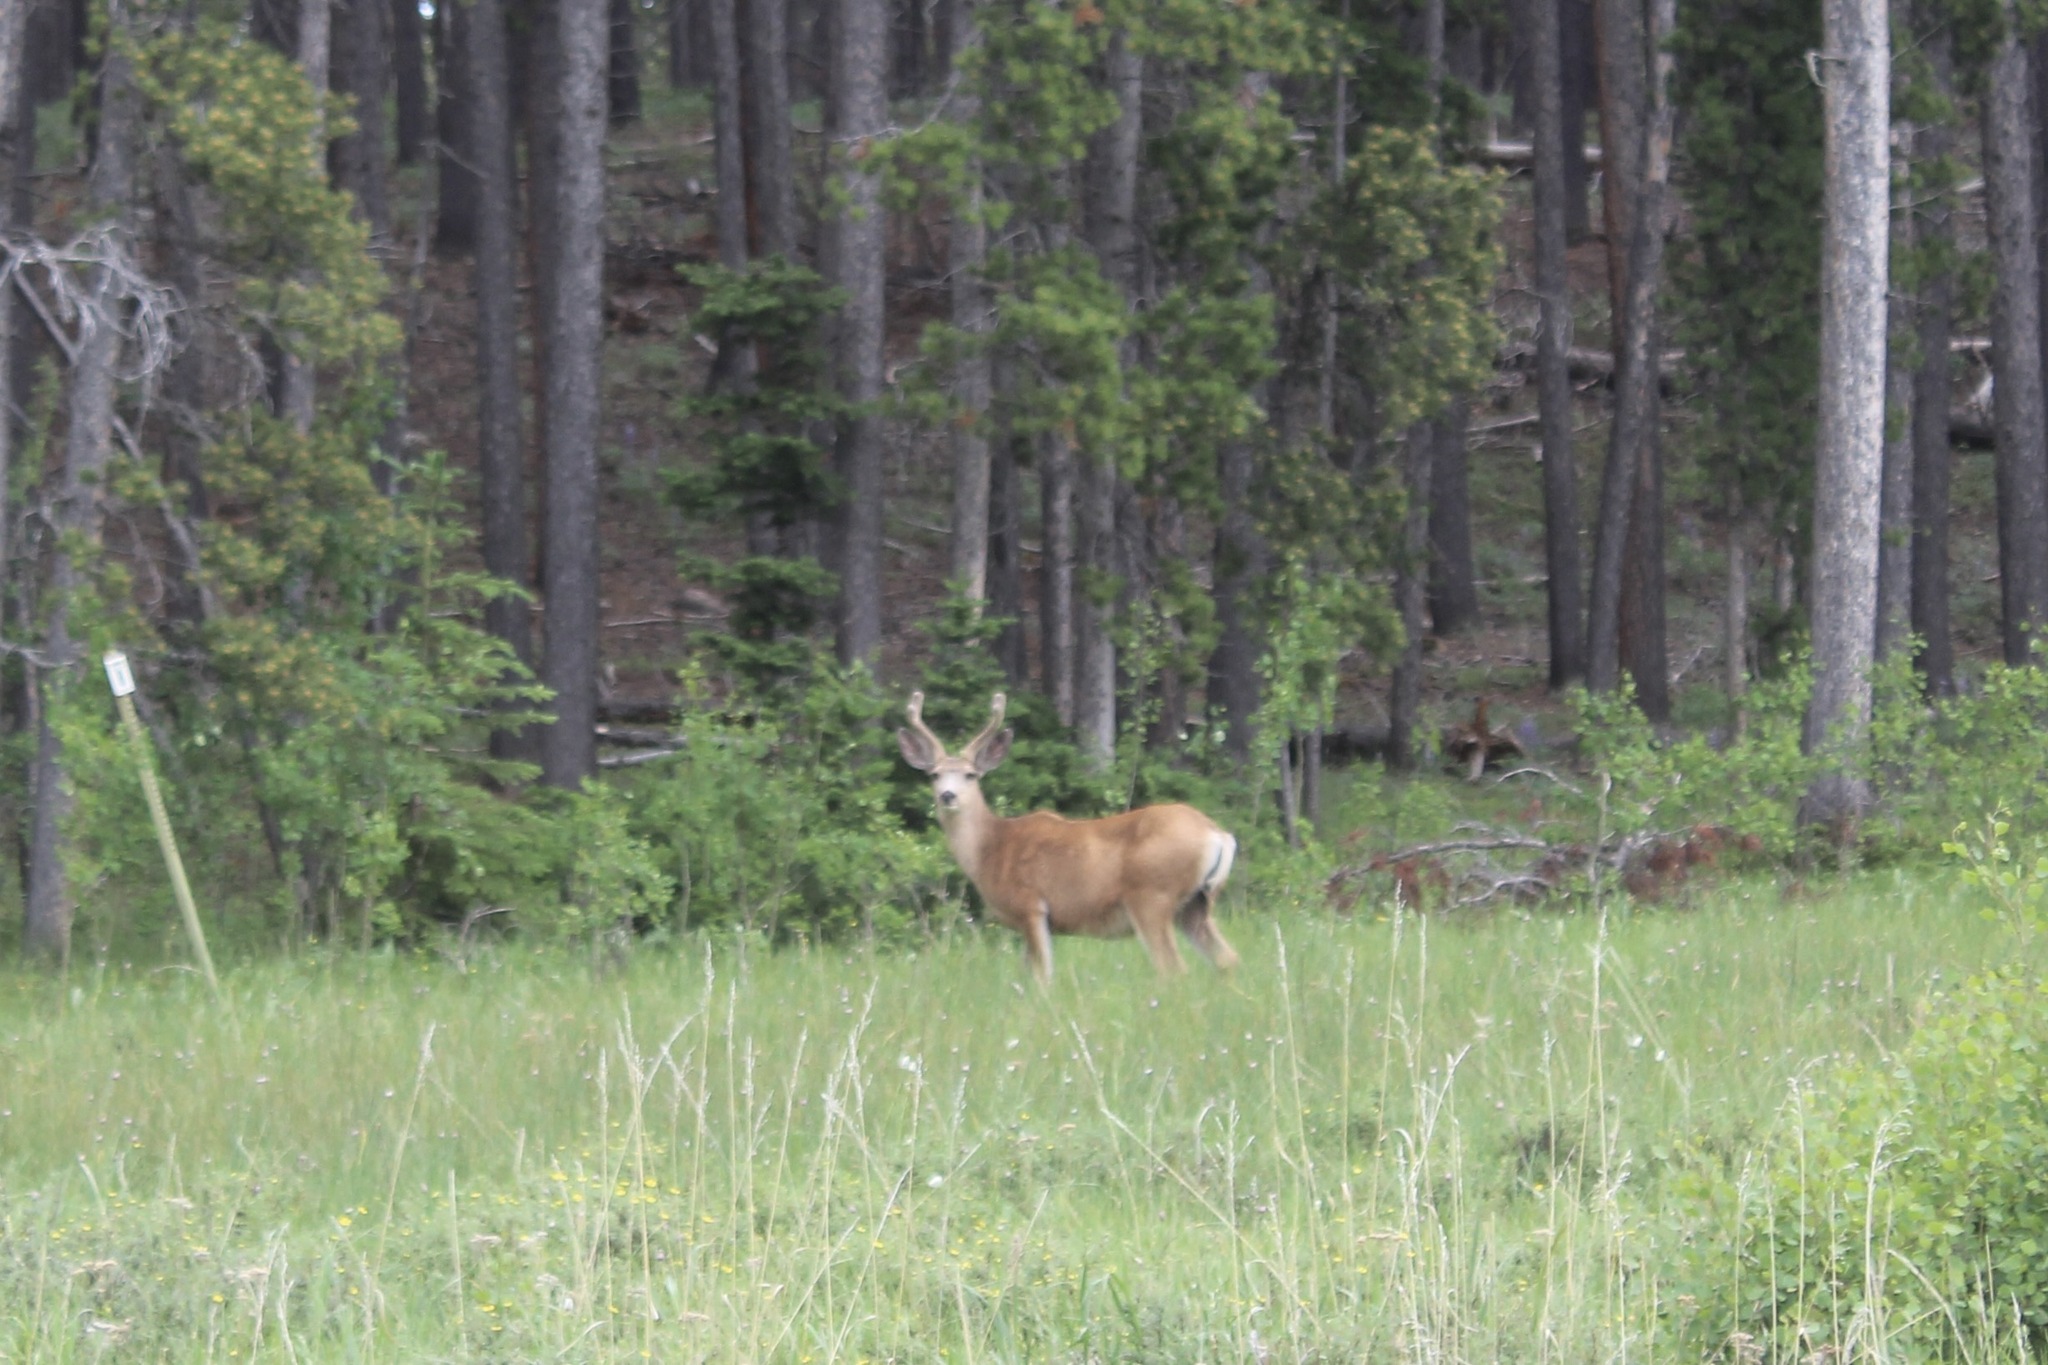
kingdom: Animalia
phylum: Chordata
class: Mammalia
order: Artiodactyla
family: Cervidae
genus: Odocoileus
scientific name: Odocoileus hemionus
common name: Mule deer
